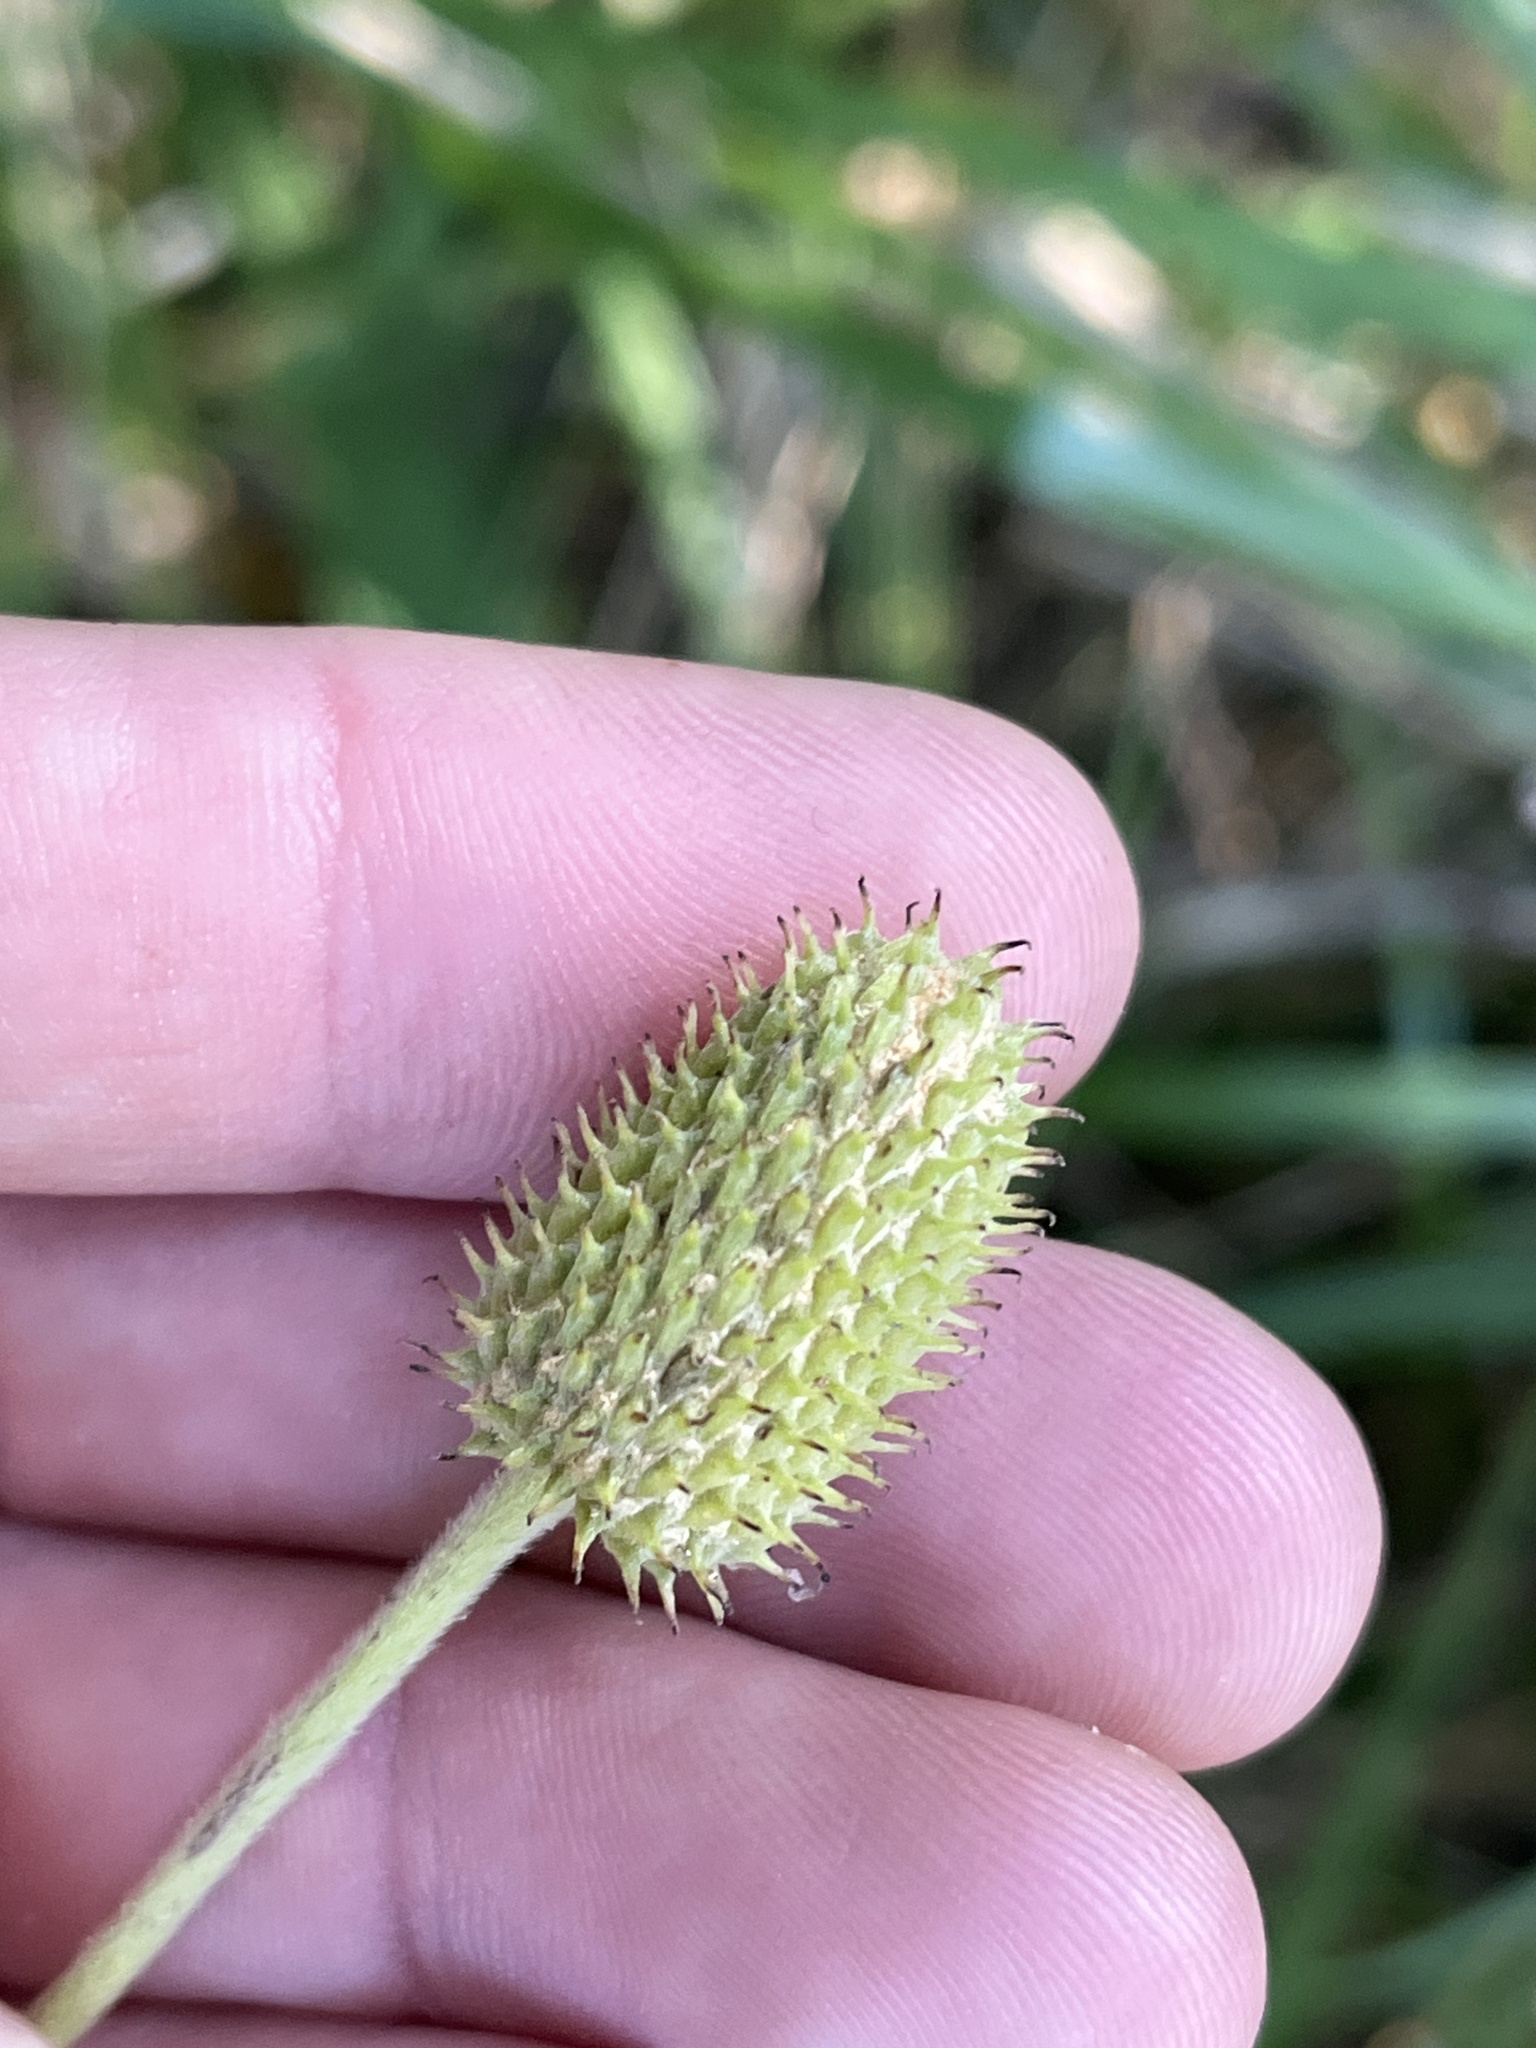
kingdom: Plantae
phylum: Tracheophyta
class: Magnoliopsida
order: Ranunculales
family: Ranunculaceae
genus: Anemone
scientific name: Anemone virginiana
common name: Tall anemone
